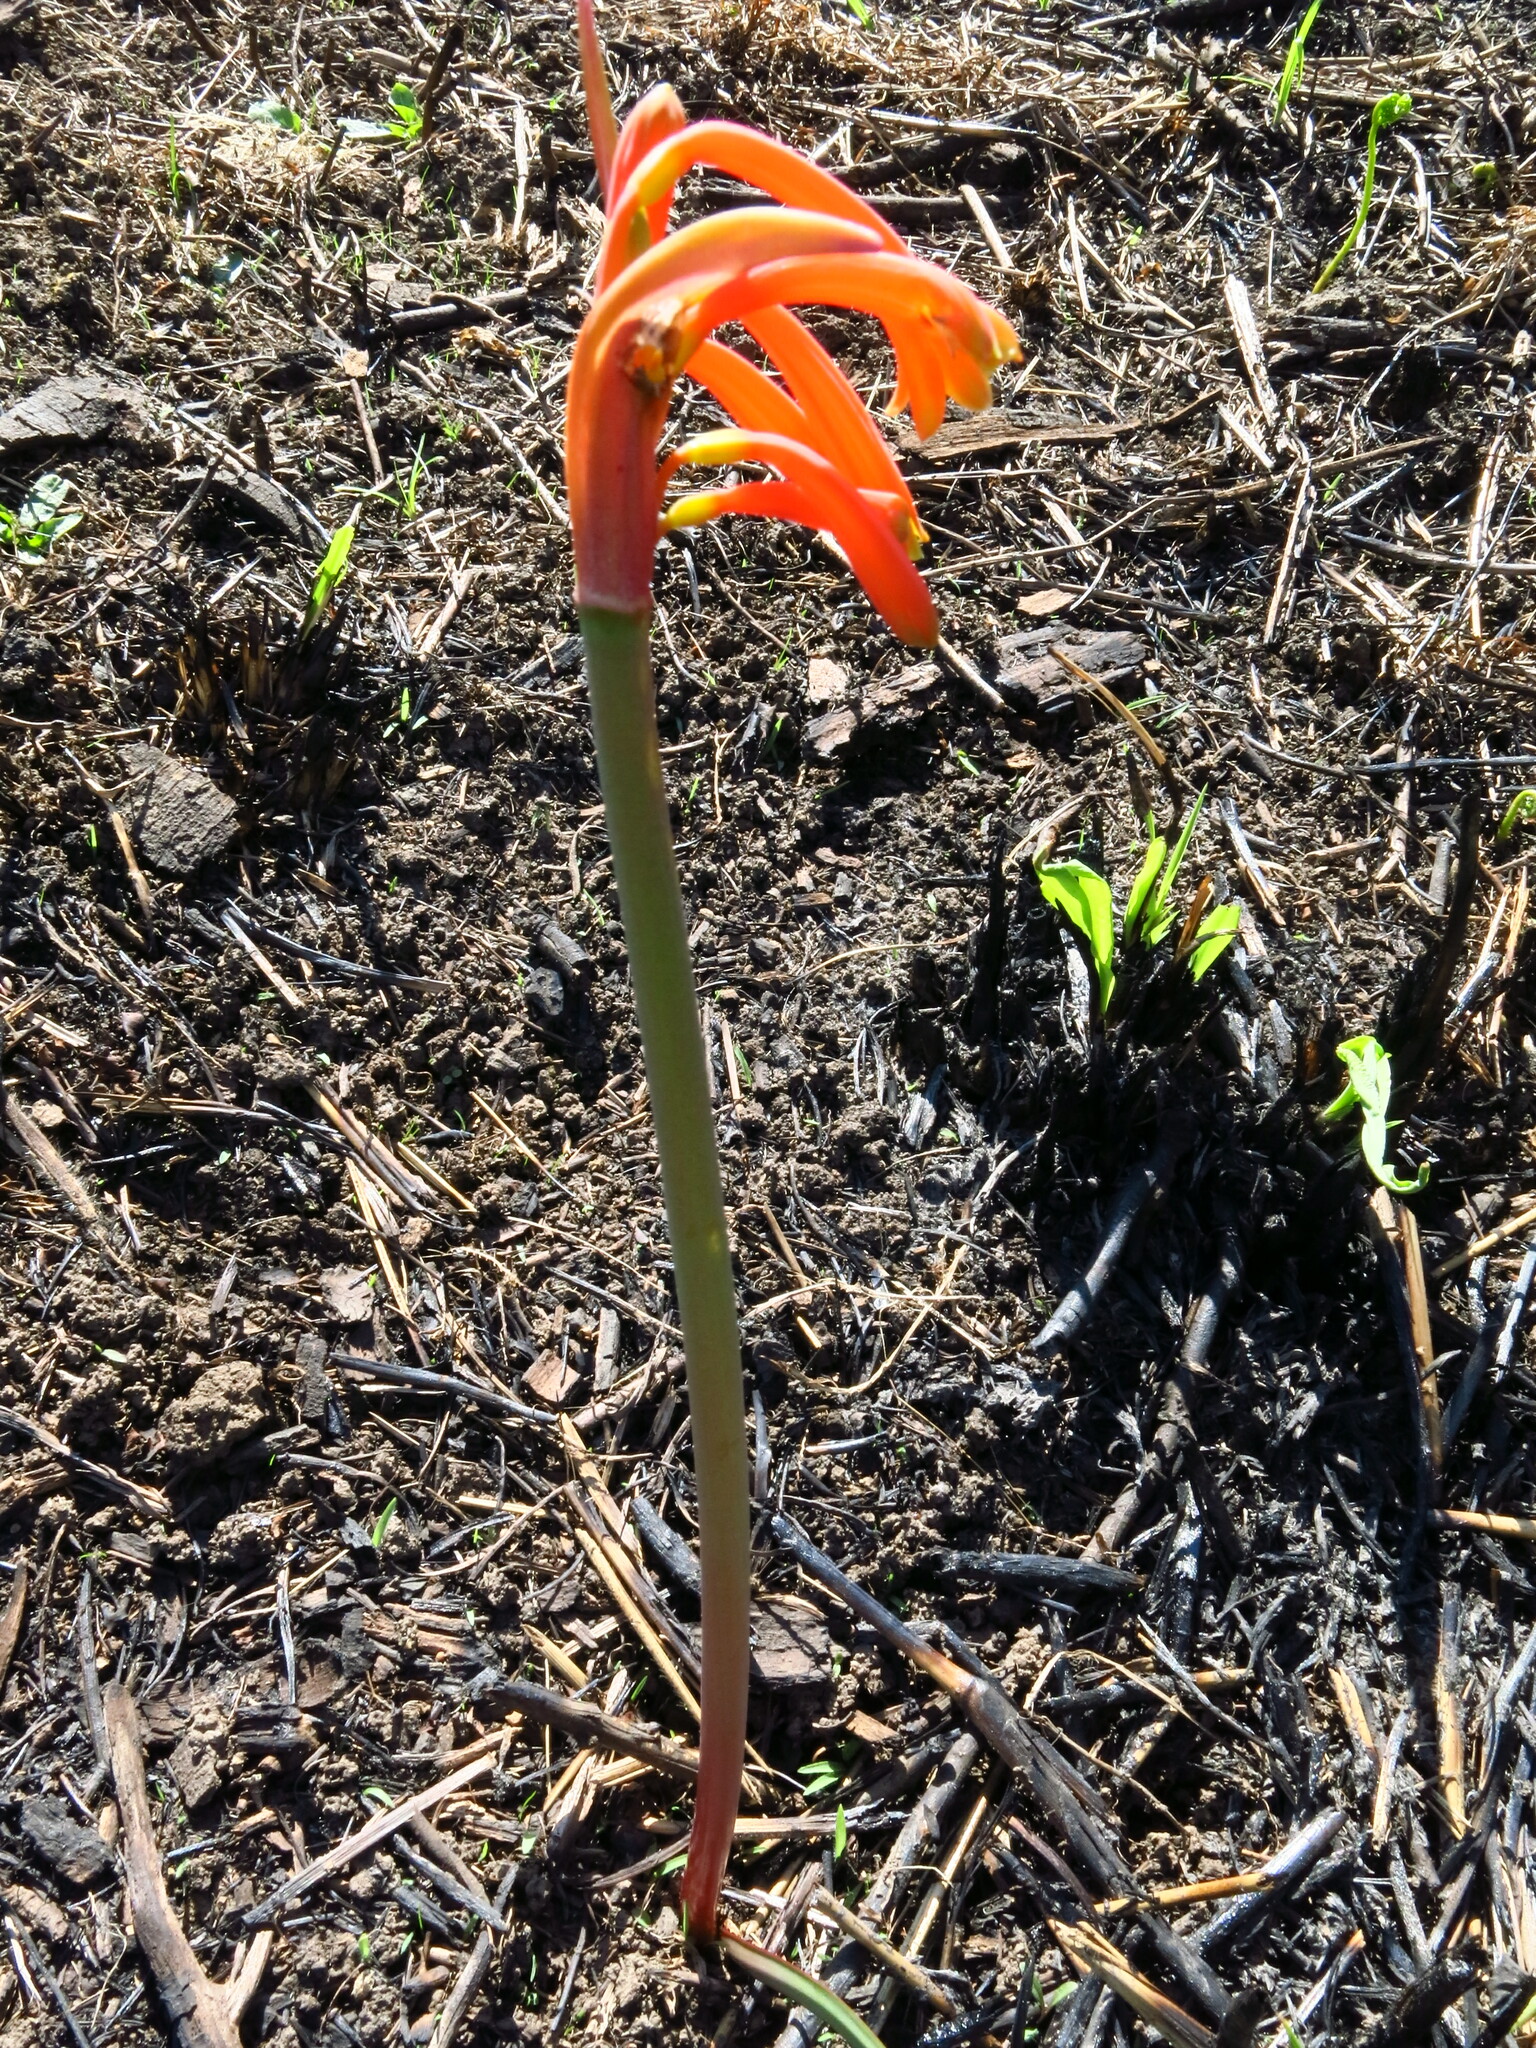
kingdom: Plantae
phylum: Tracheophyta
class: Liliopsida
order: Asparagales
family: Amaryllidaceae
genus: Cyrtanthus
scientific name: Cyrtanthus tuckii
